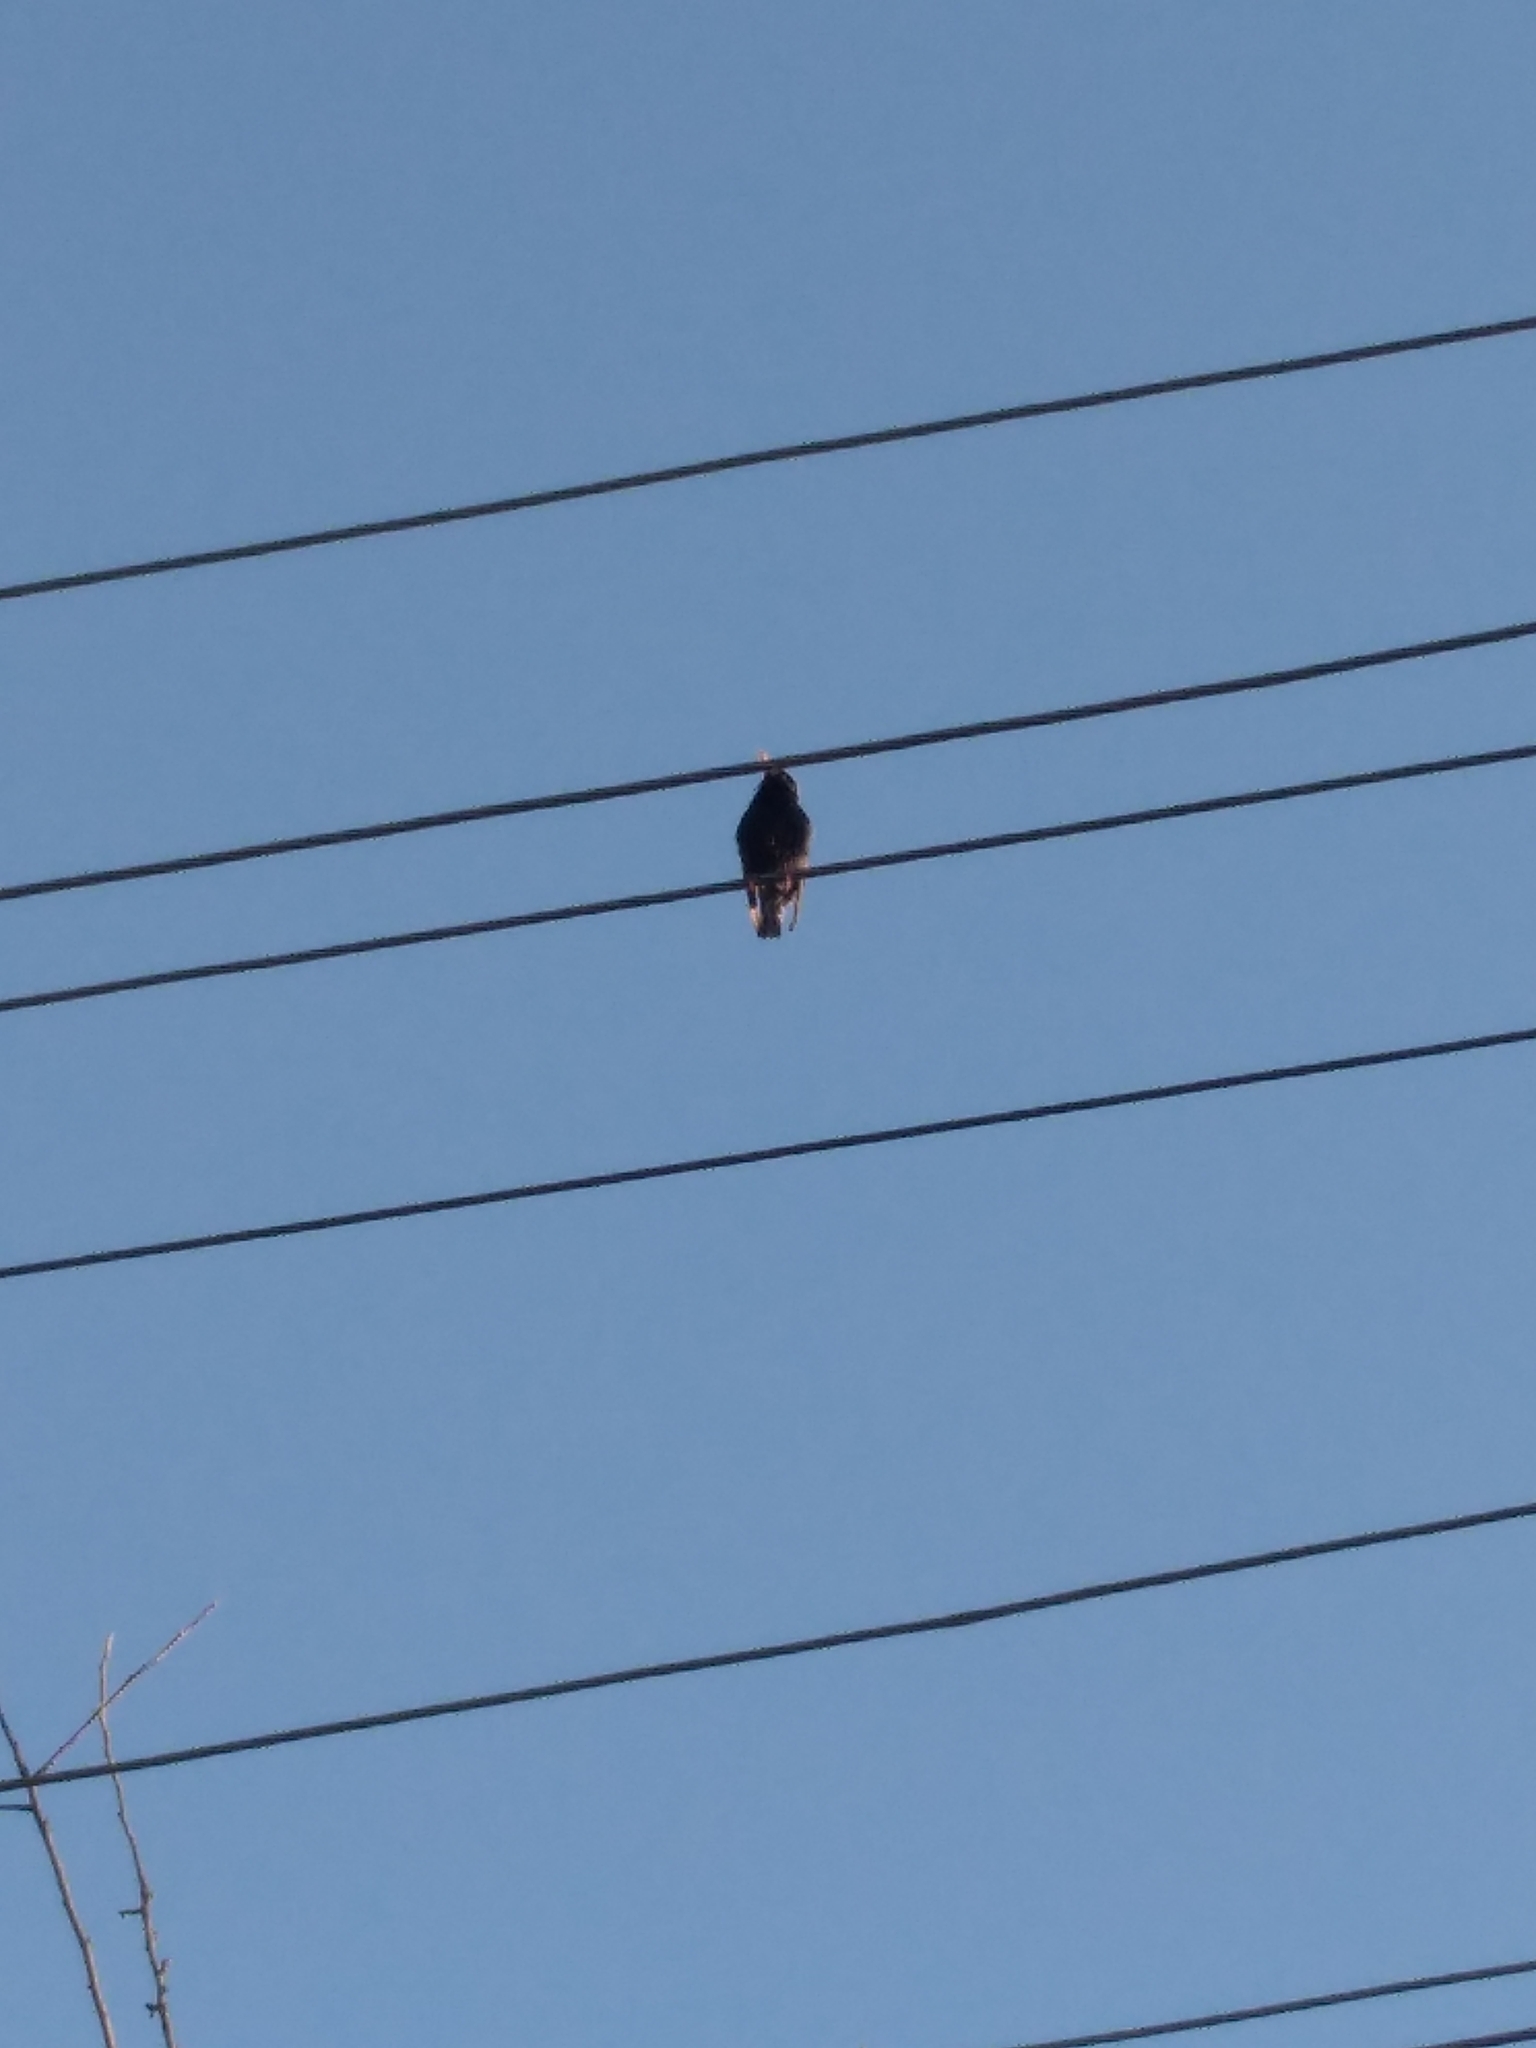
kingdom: Animalia
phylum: Chordata
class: Aves
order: Passeriformes
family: Sturnidae
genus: Sturnus
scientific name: Sturnus vulgaris
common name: Common starling
